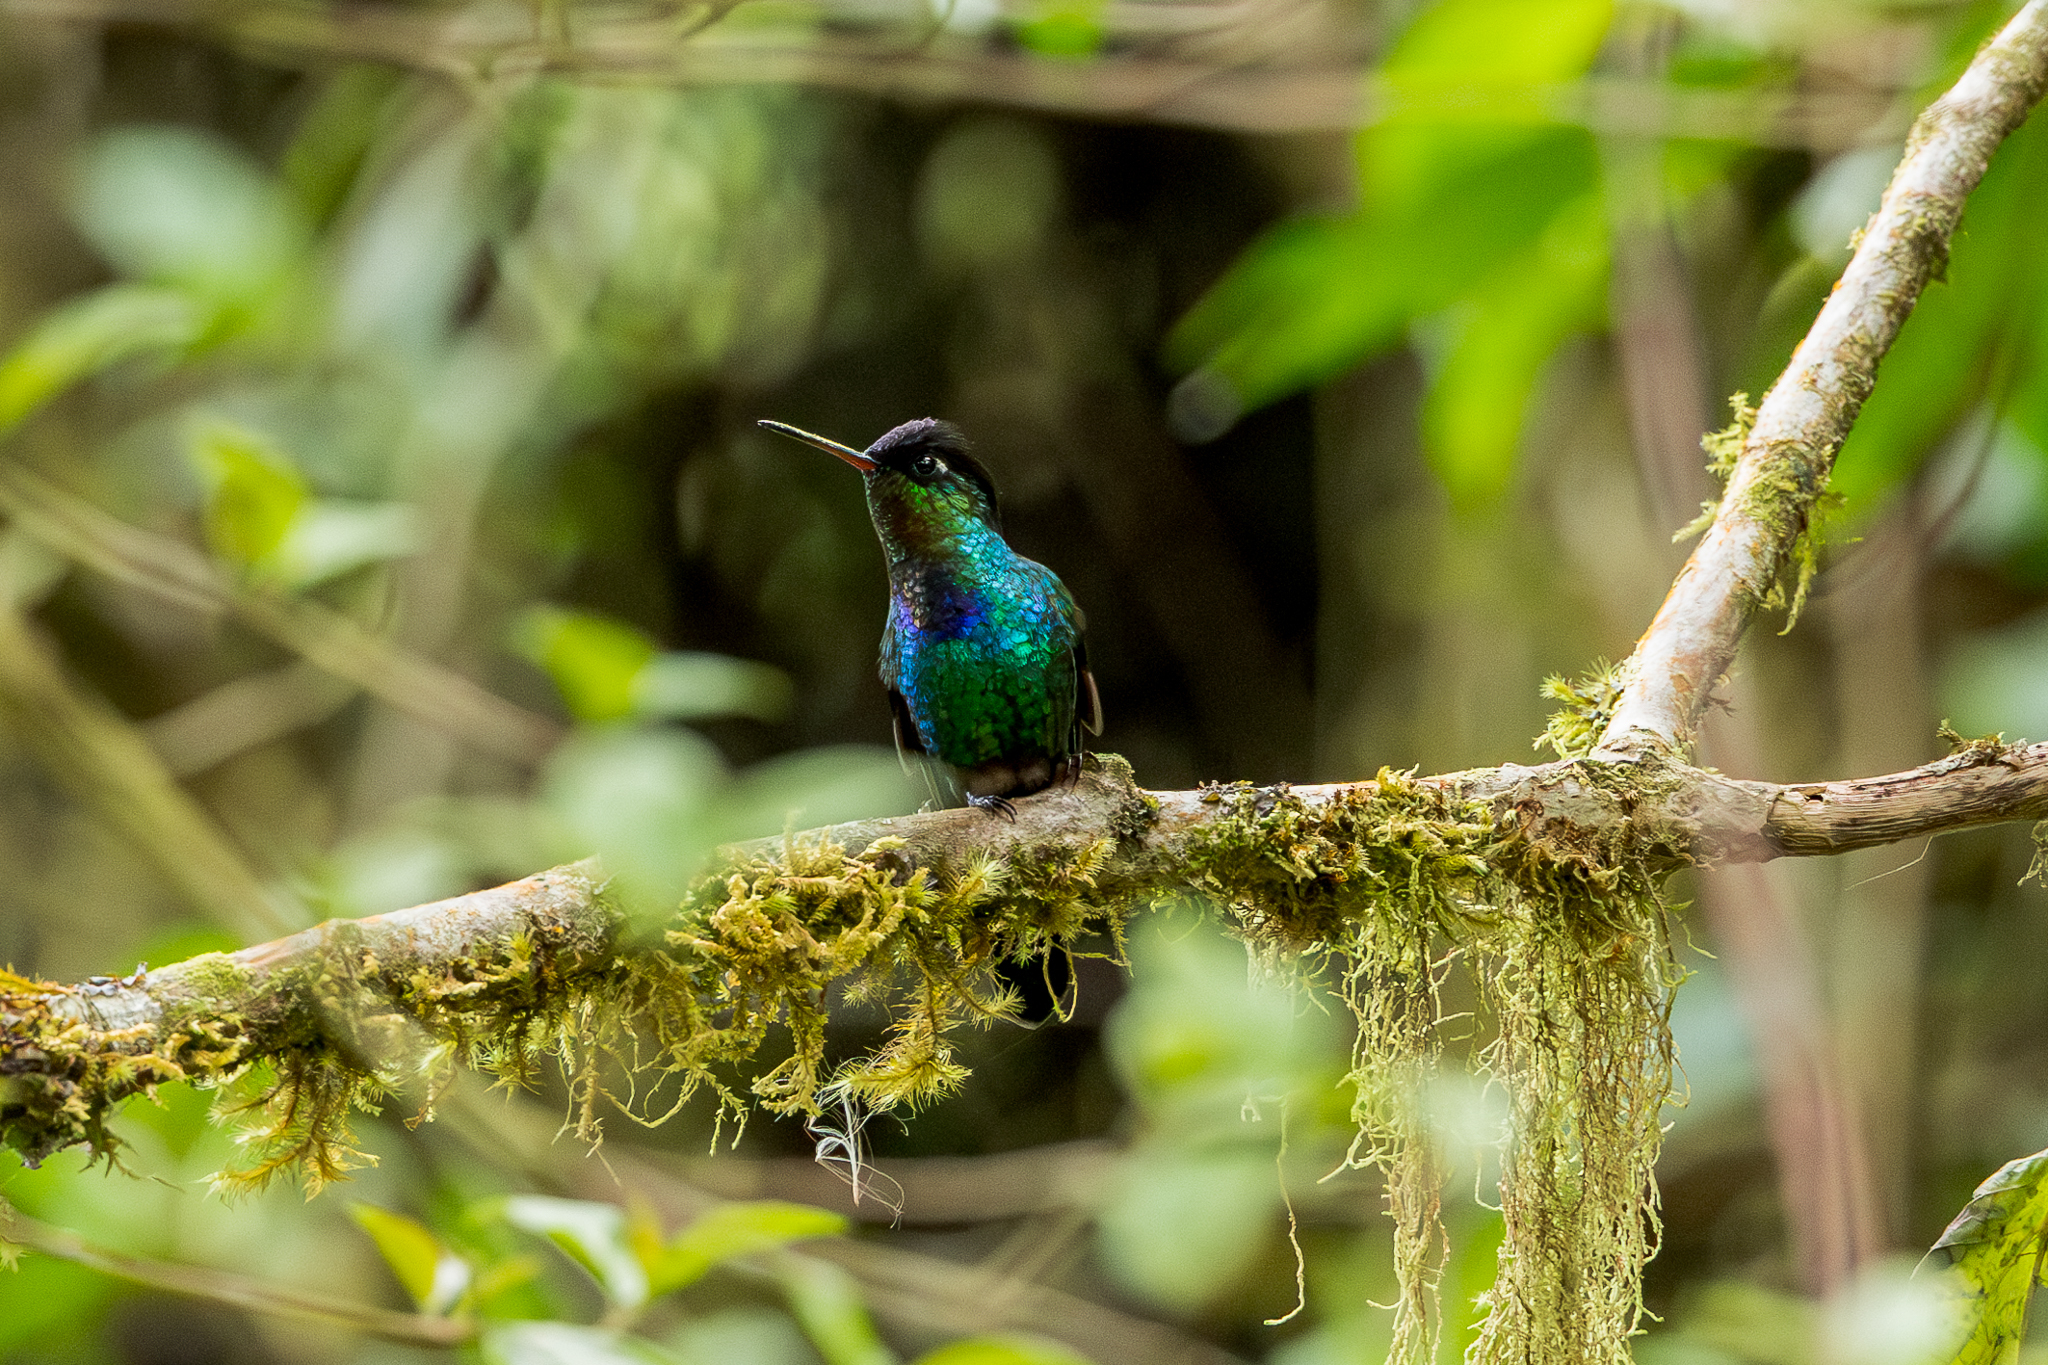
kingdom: Animalia
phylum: Chordata
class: Aves
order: Apodiformes
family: Trochilidae
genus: Panterpe
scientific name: Panterpe insignis
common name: Fiery-throated hummingbird
